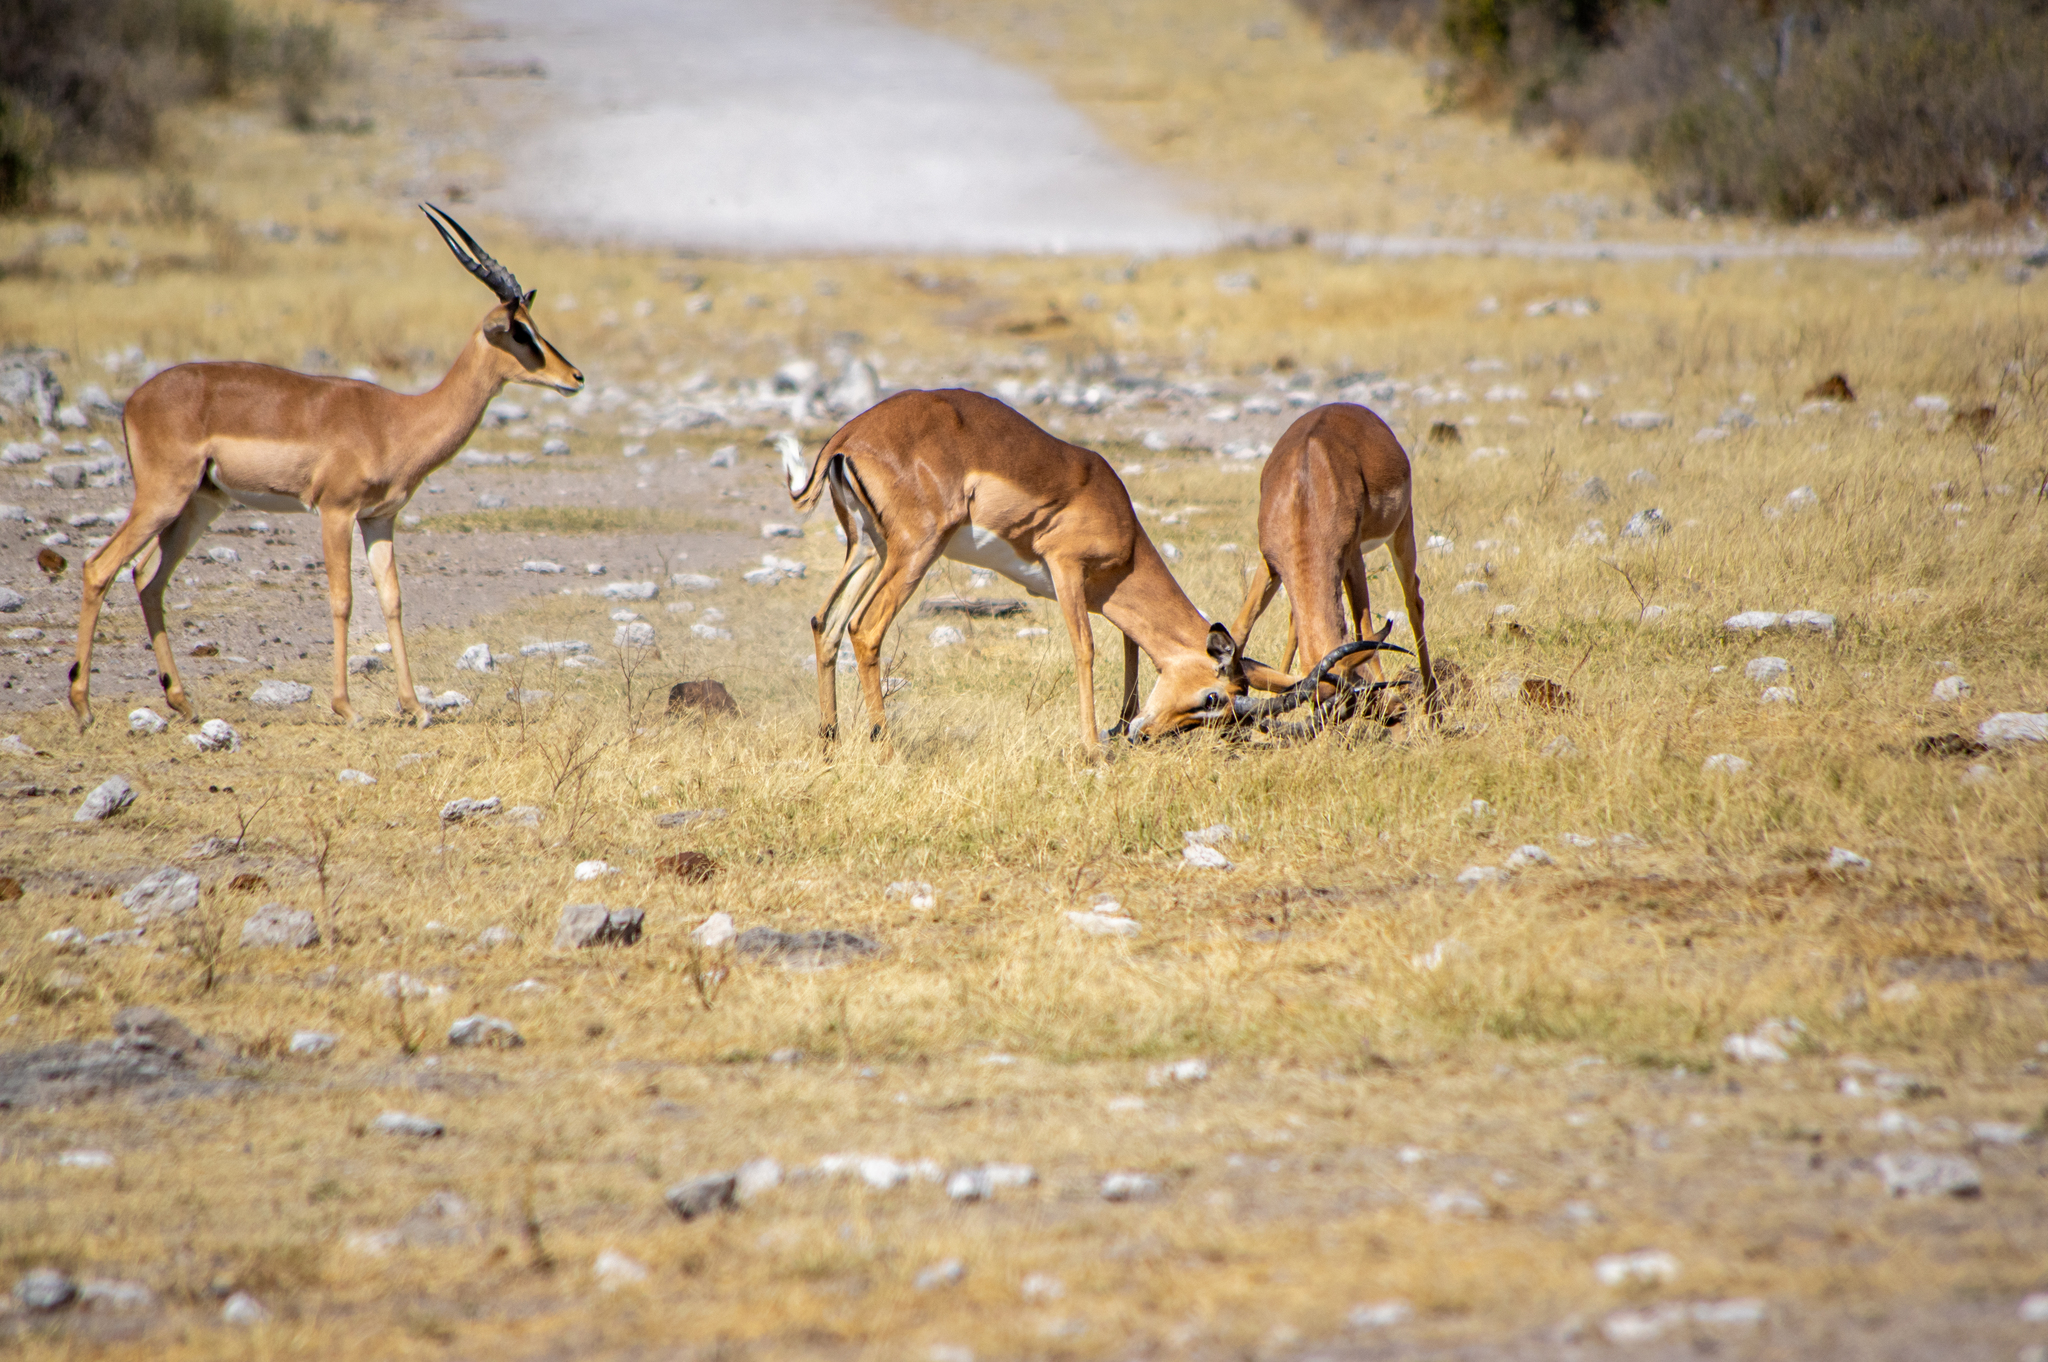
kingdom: Animalia
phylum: Chordata
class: Mammalia
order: Artiodactyla
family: Bovidae
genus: Aepyceros
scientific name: Aepyceros melampus
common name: Impala
